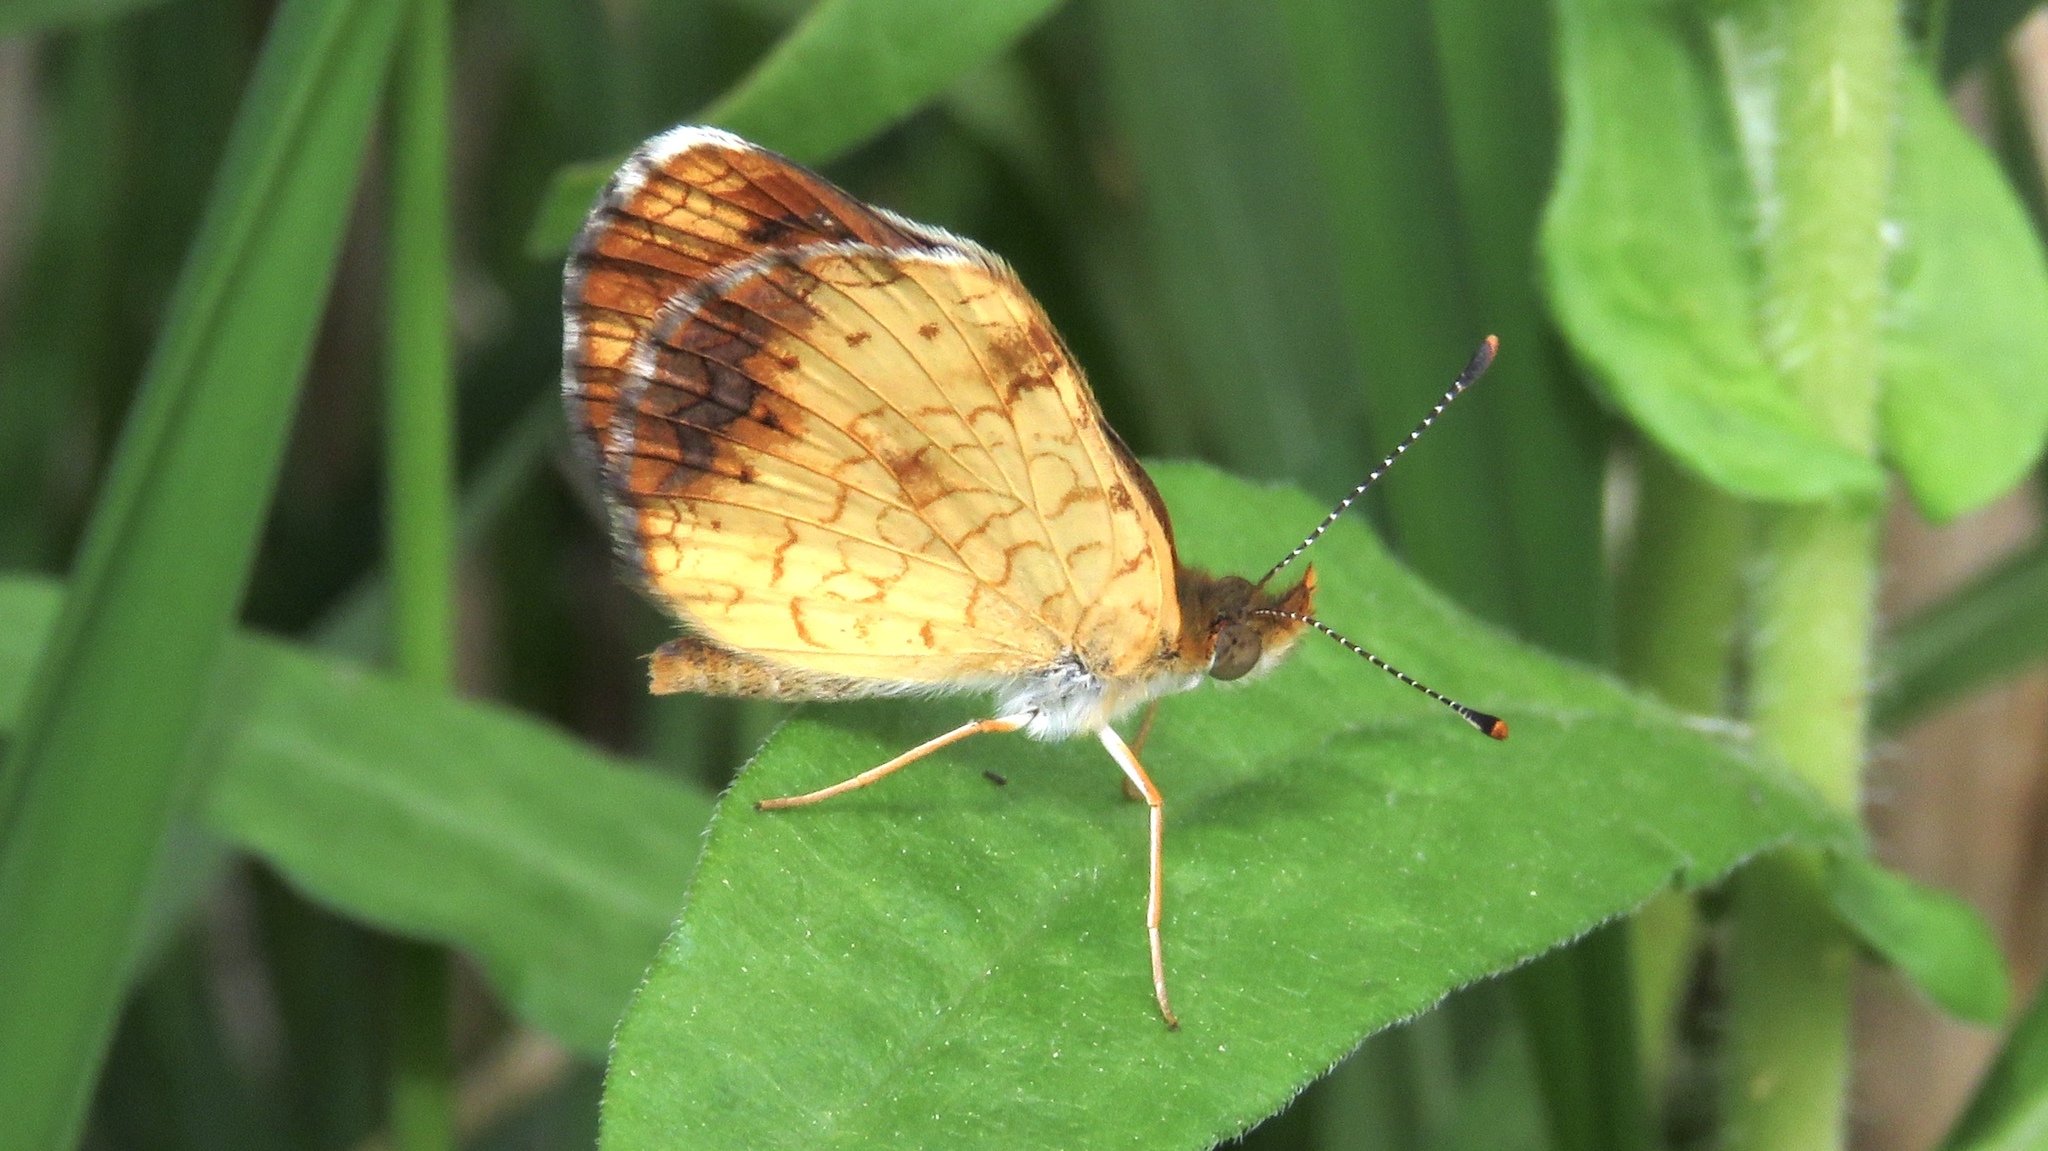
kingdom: Animalia
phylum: Arthropoda
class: Insecta
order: Lepidoptera
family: Nymphalidae
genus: Phyciodes
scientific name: Phyciodes tharos
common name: Pearl crescent
